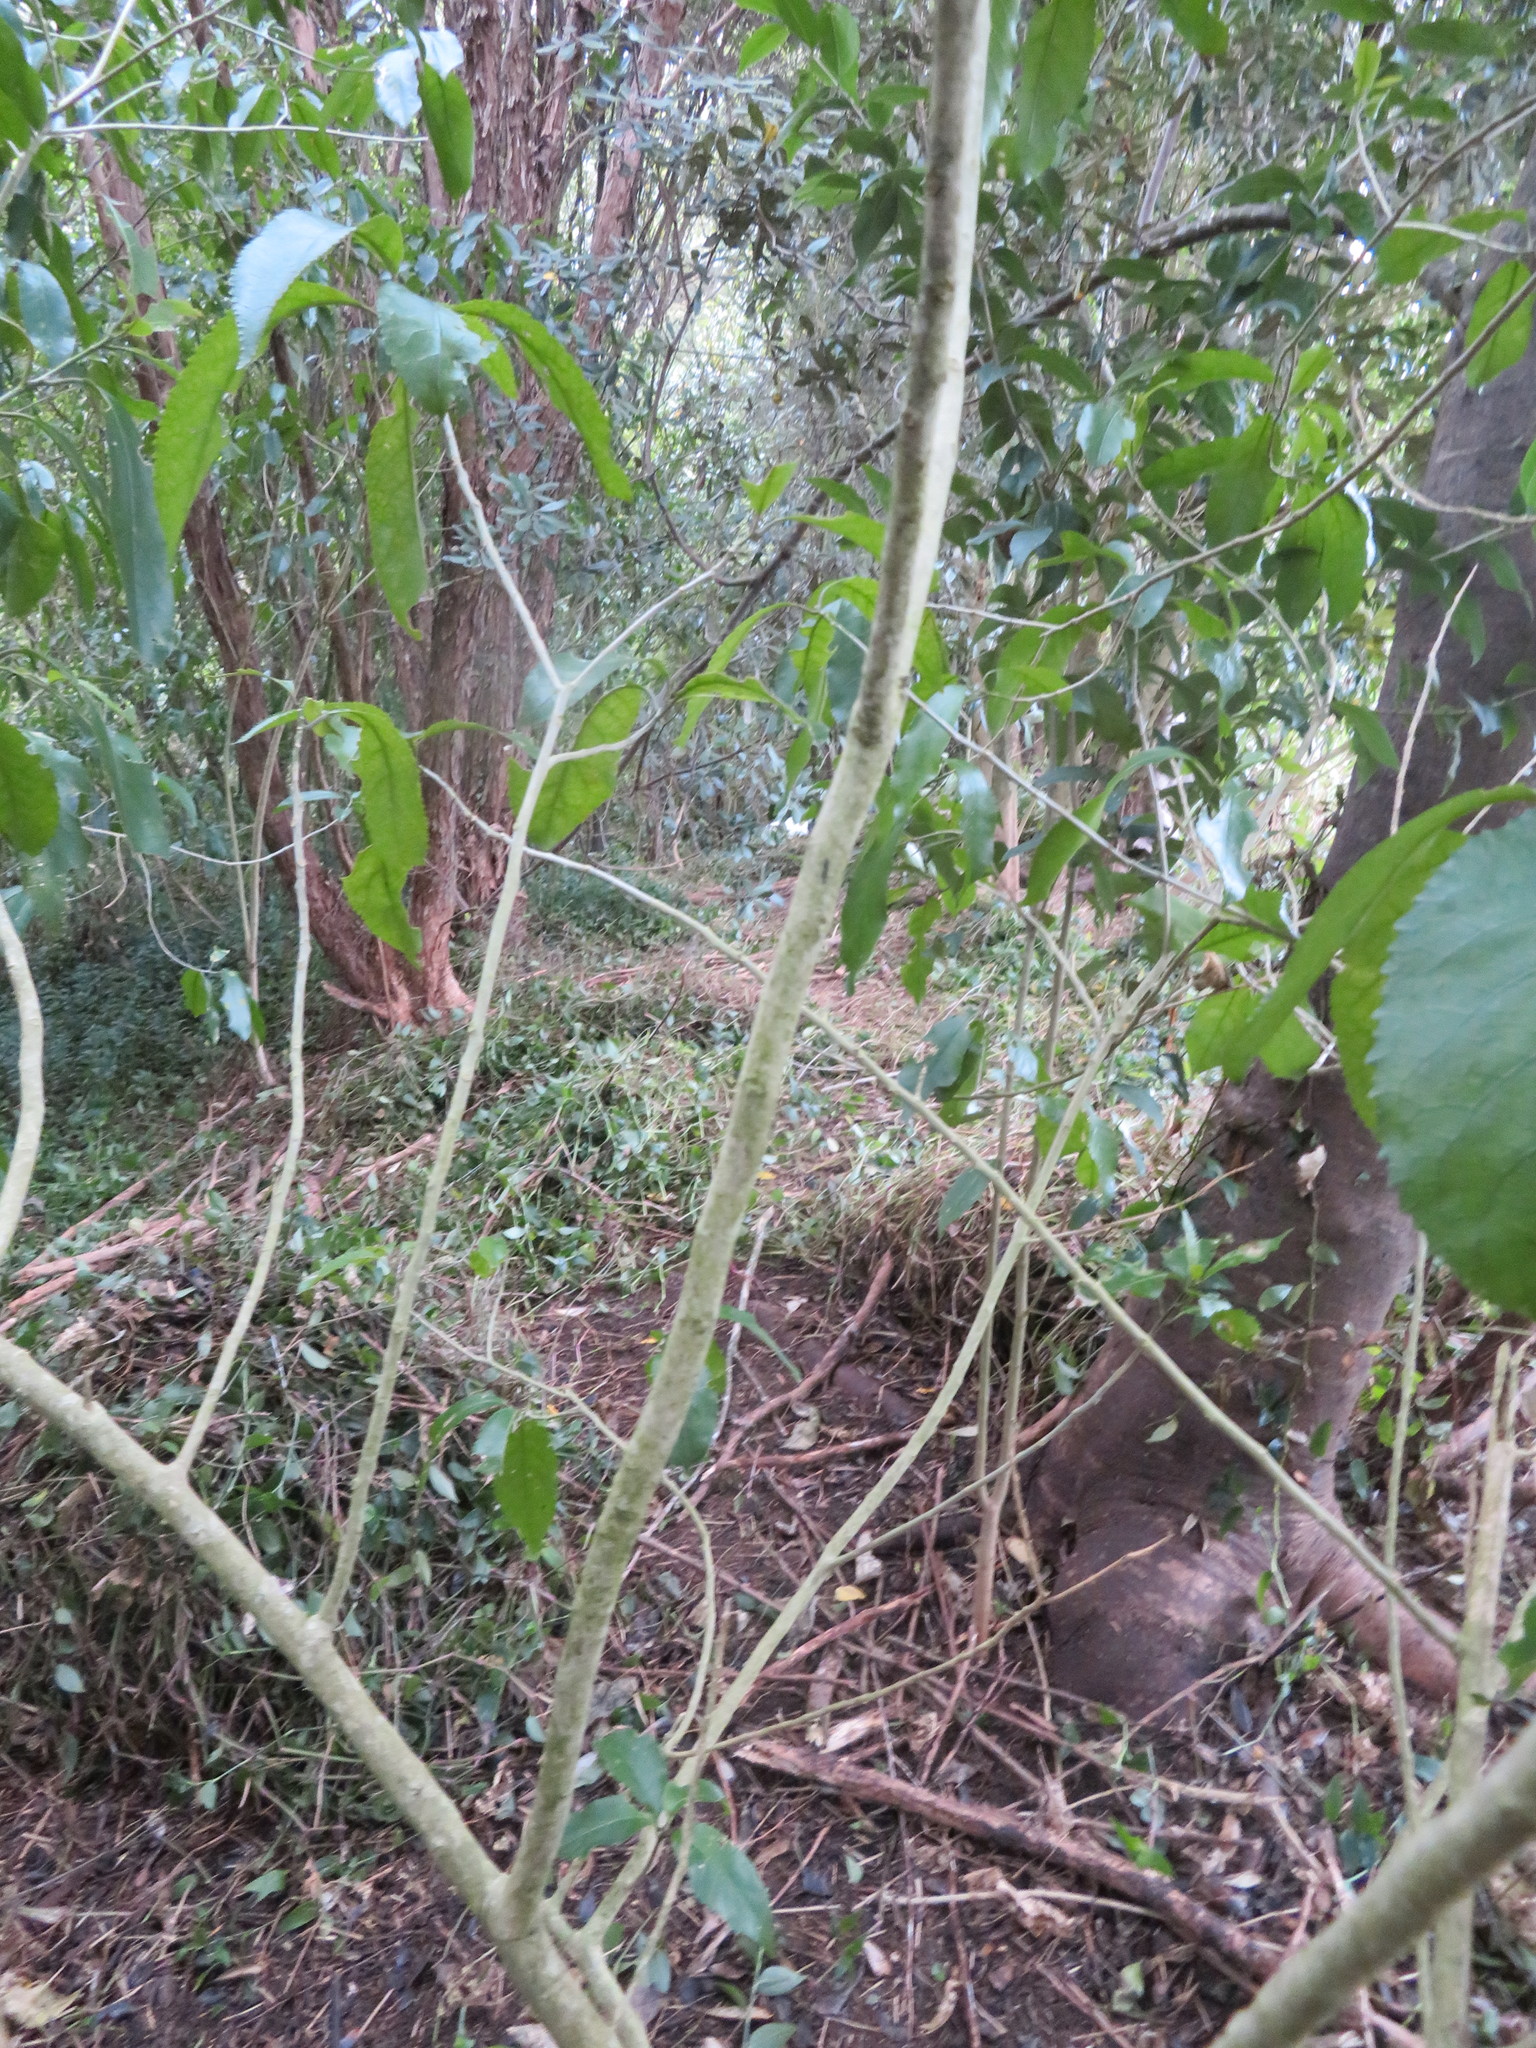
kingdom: Plantae
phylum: Tracheophyta
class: Magnoliopsida
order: Malpighiales
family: Violaceae
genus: Melicytus
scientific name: Melicytus ramiflorus
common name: Mahoe
